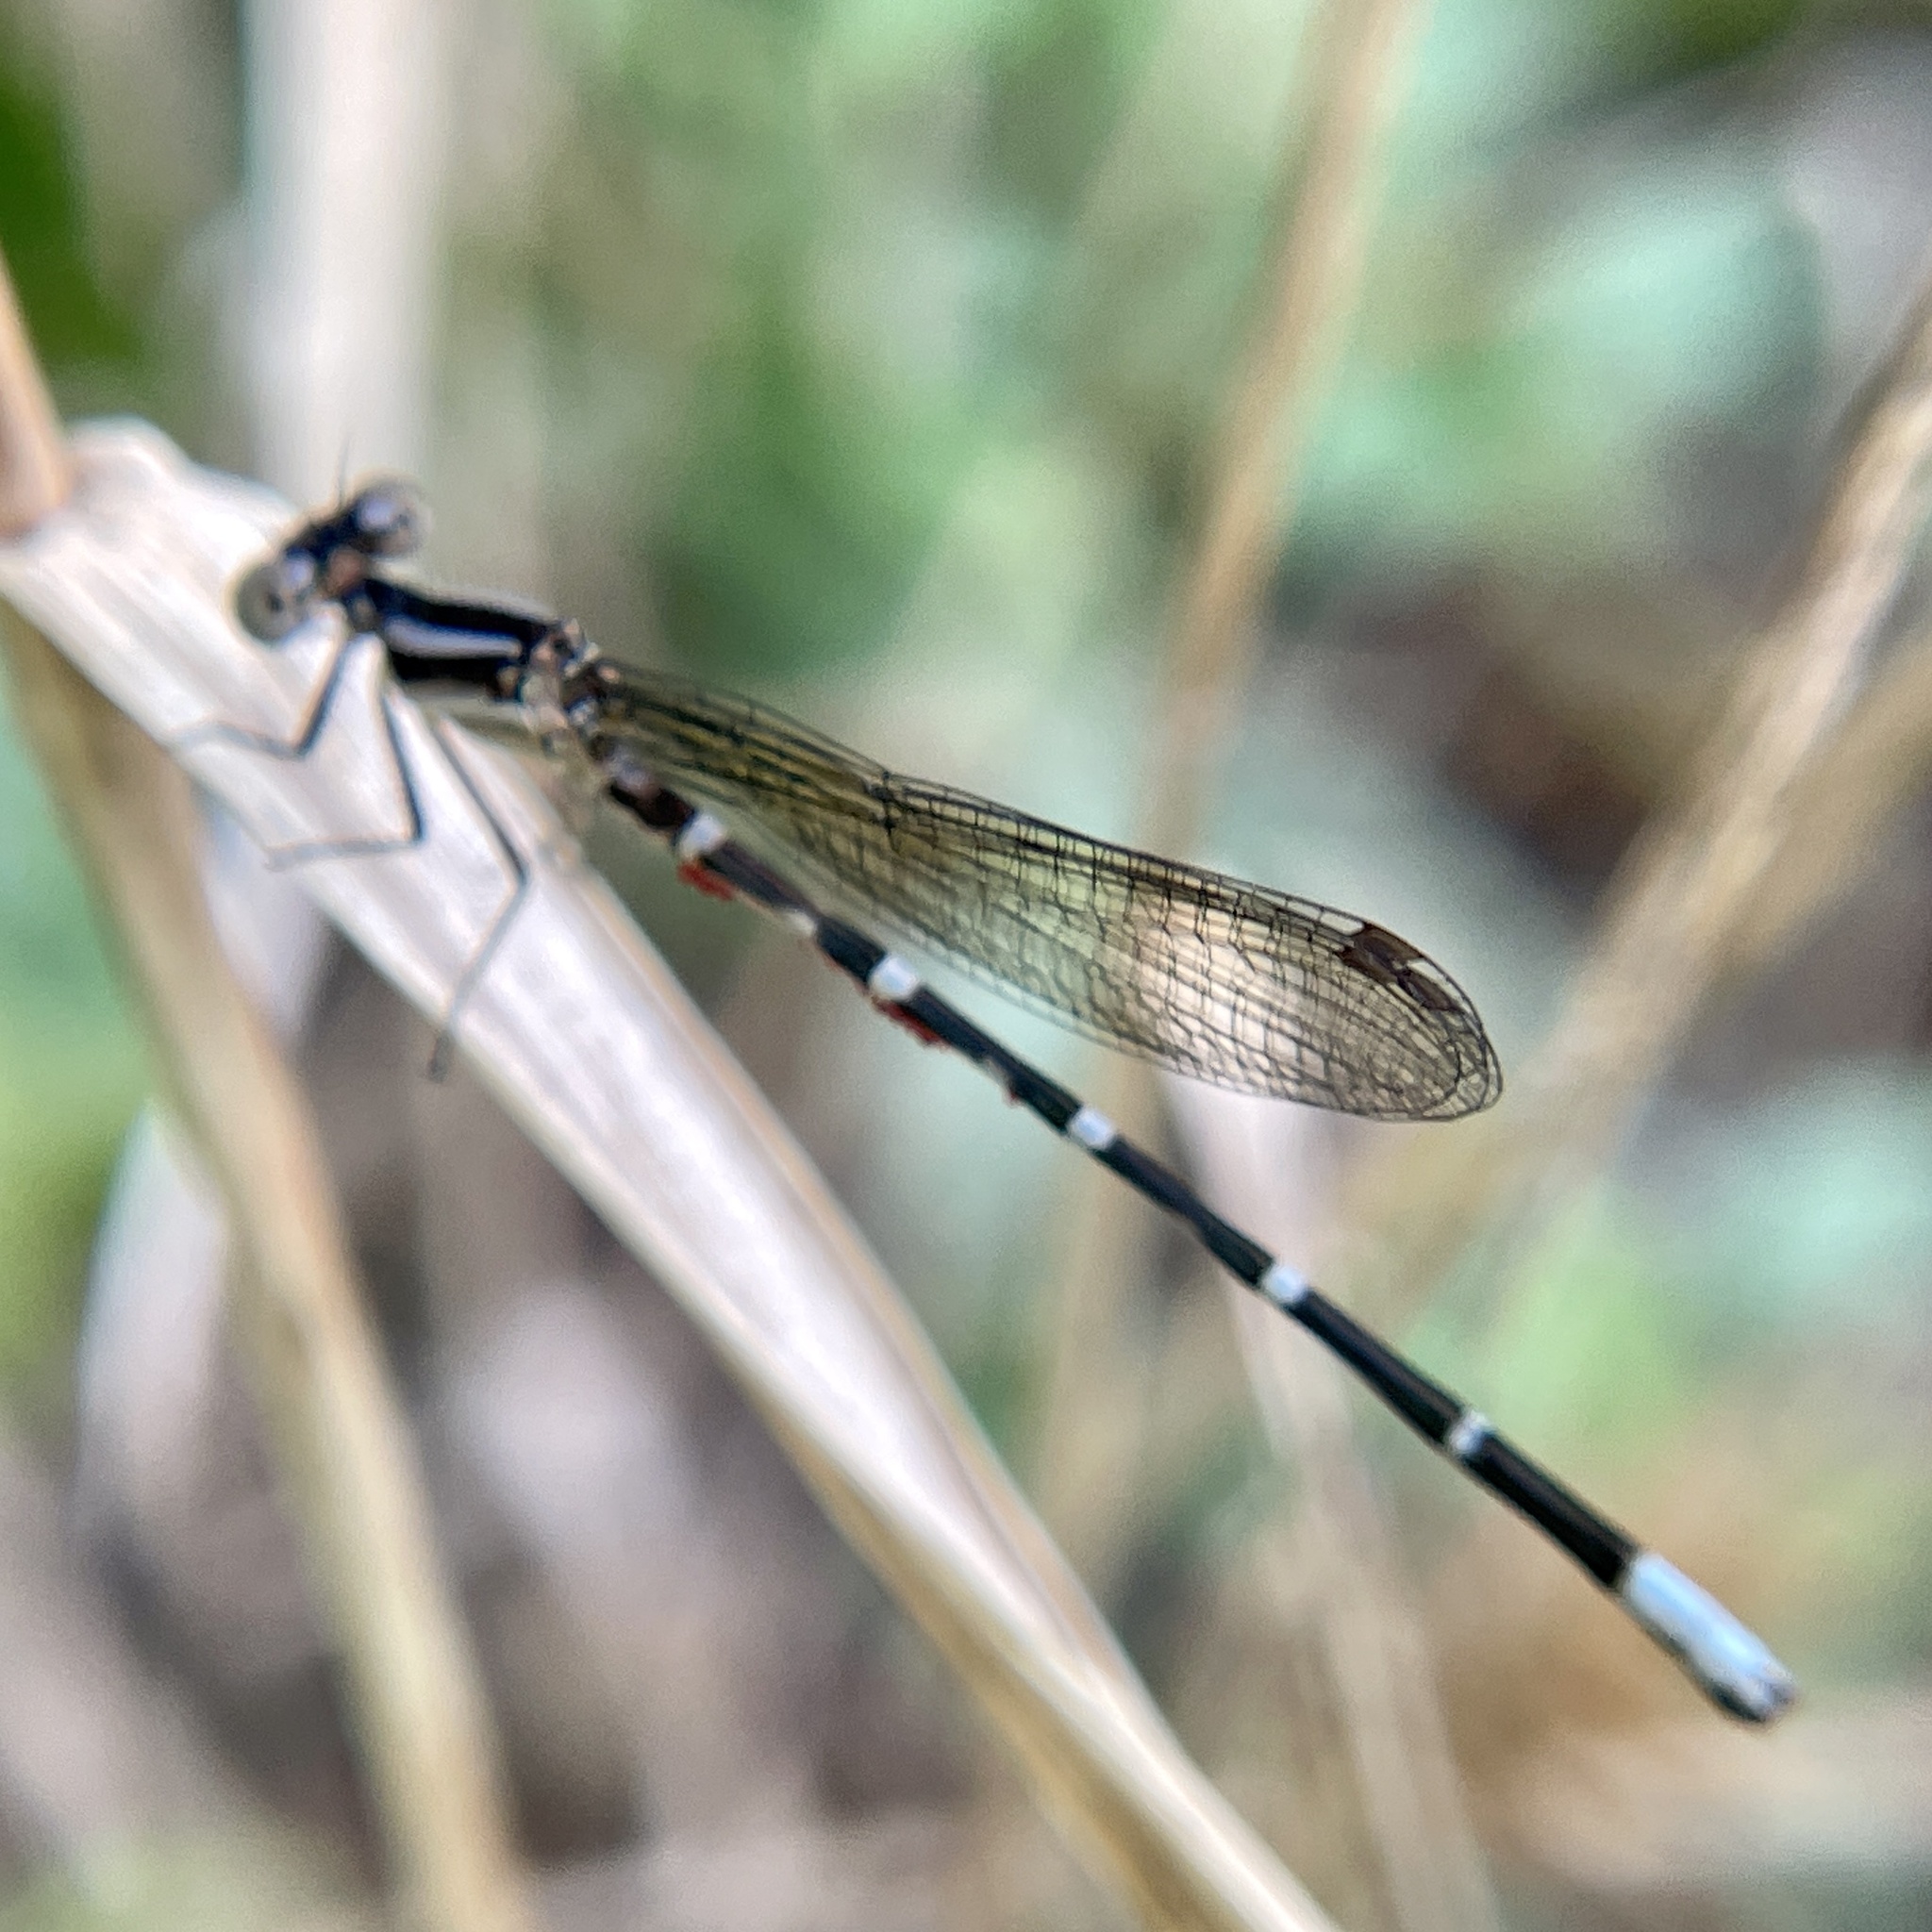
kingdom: Animalia
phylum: Arthropoda
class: Insecta
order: Odonata
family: Coenagrionidae
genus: Argia
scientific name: Argia sedula
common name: Blue-ringed dancer
